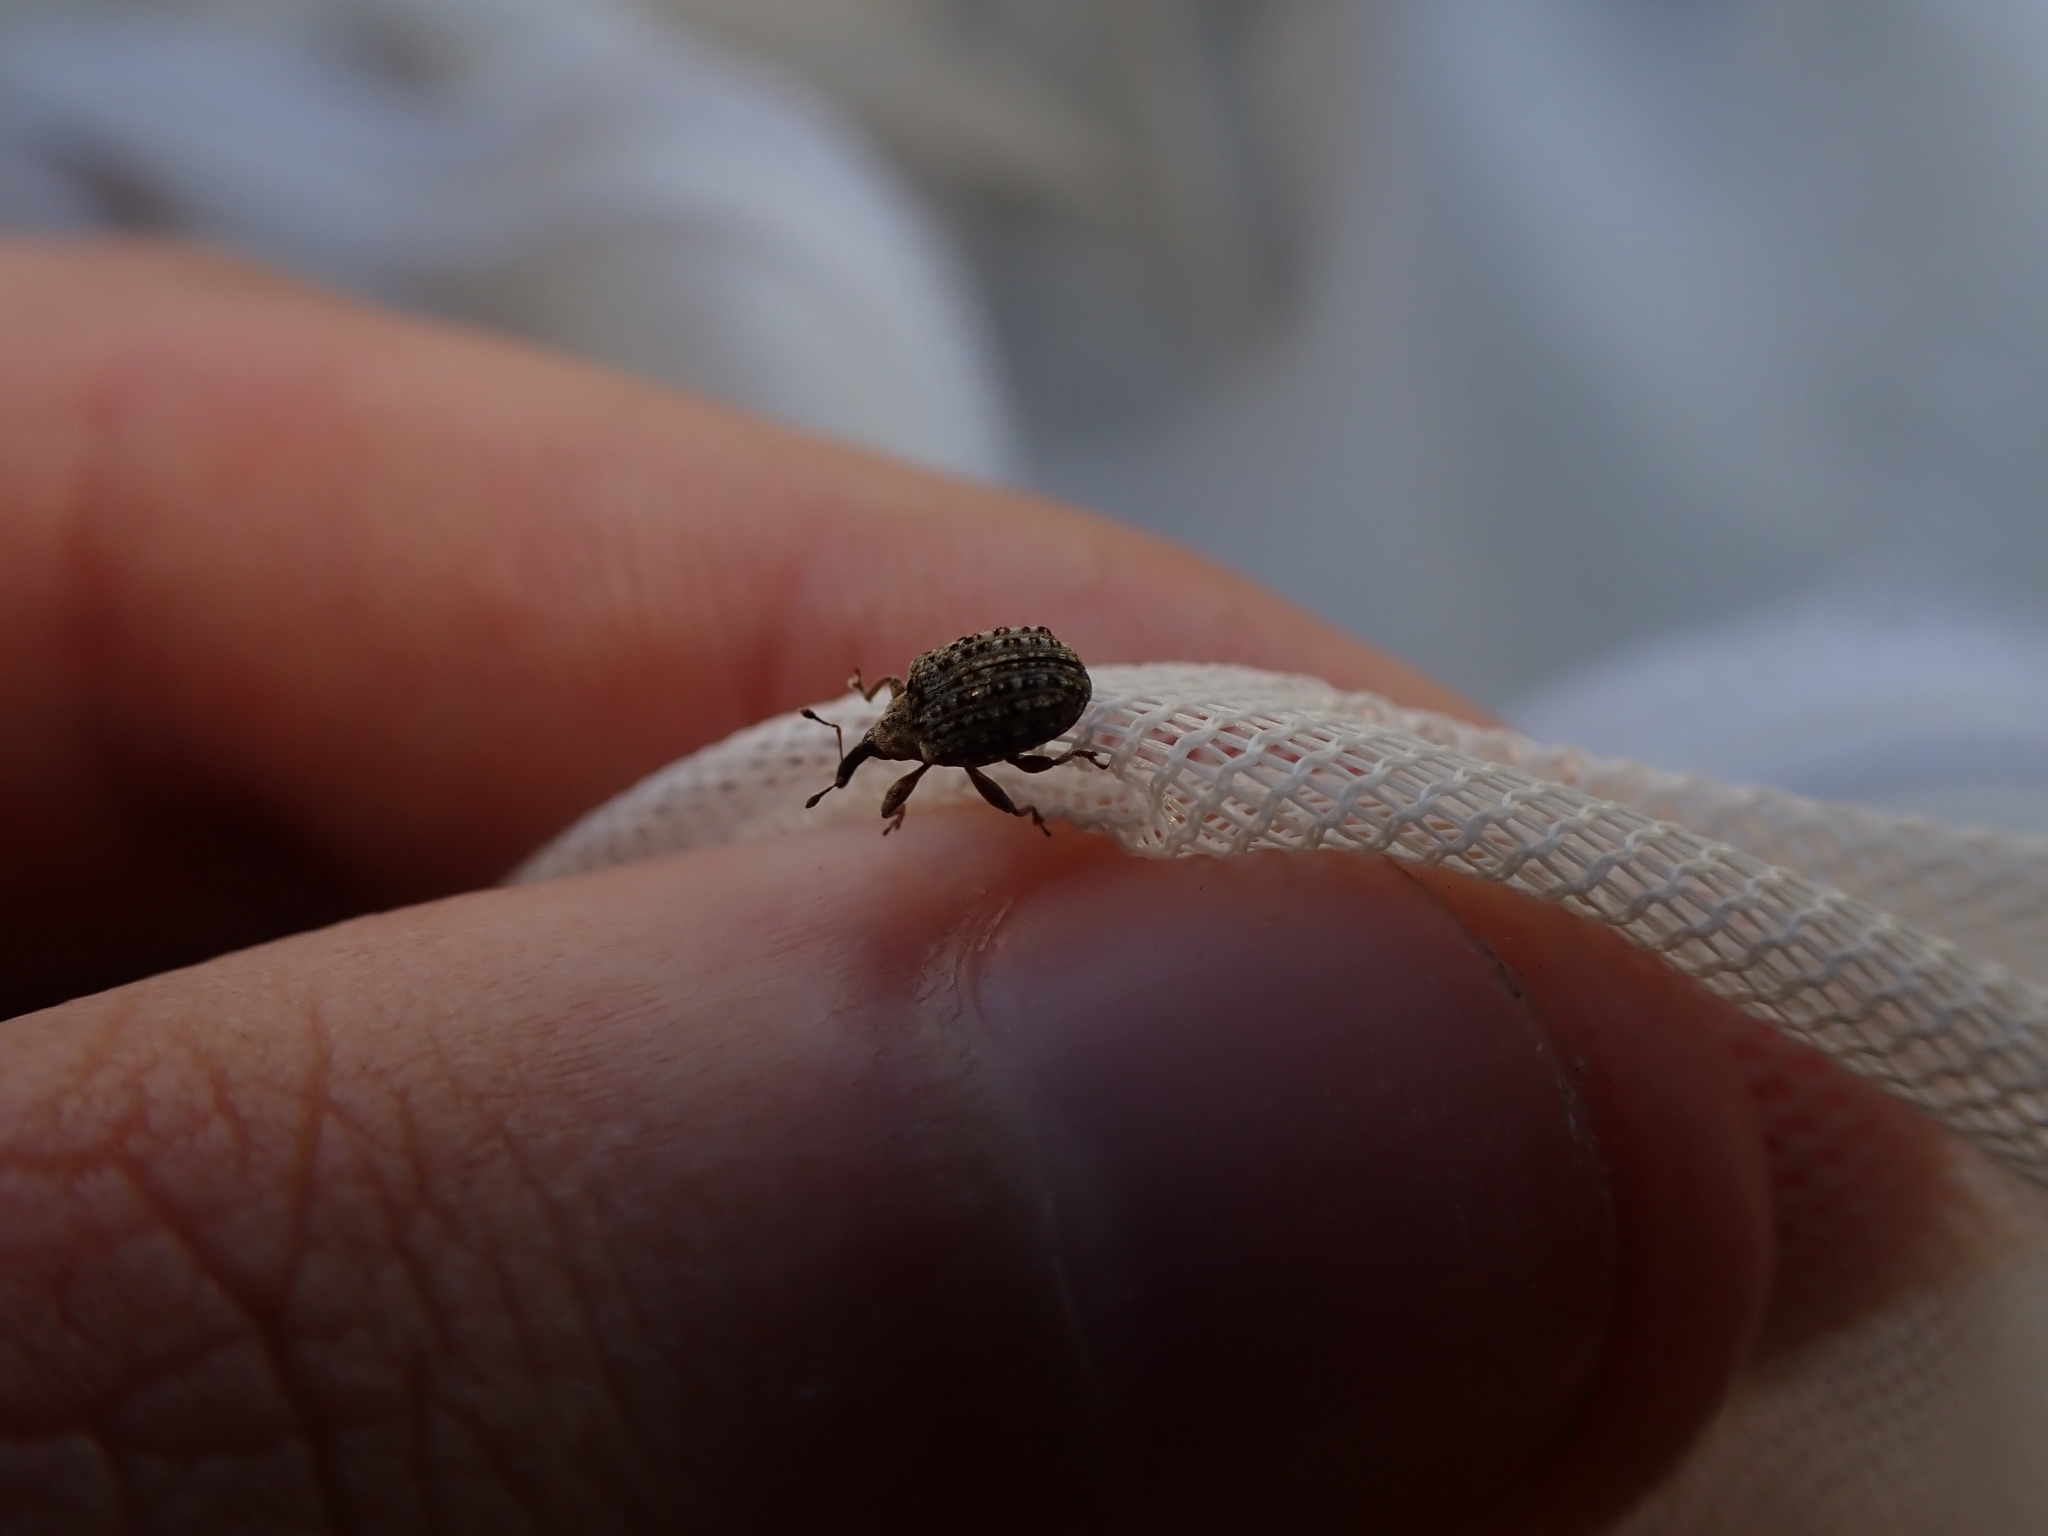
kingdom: Animalia
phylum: Arthropoda
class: Insecta
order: Coleoptera
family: Curculionidae
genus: Cleopus
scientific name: Cleopus japonicus
